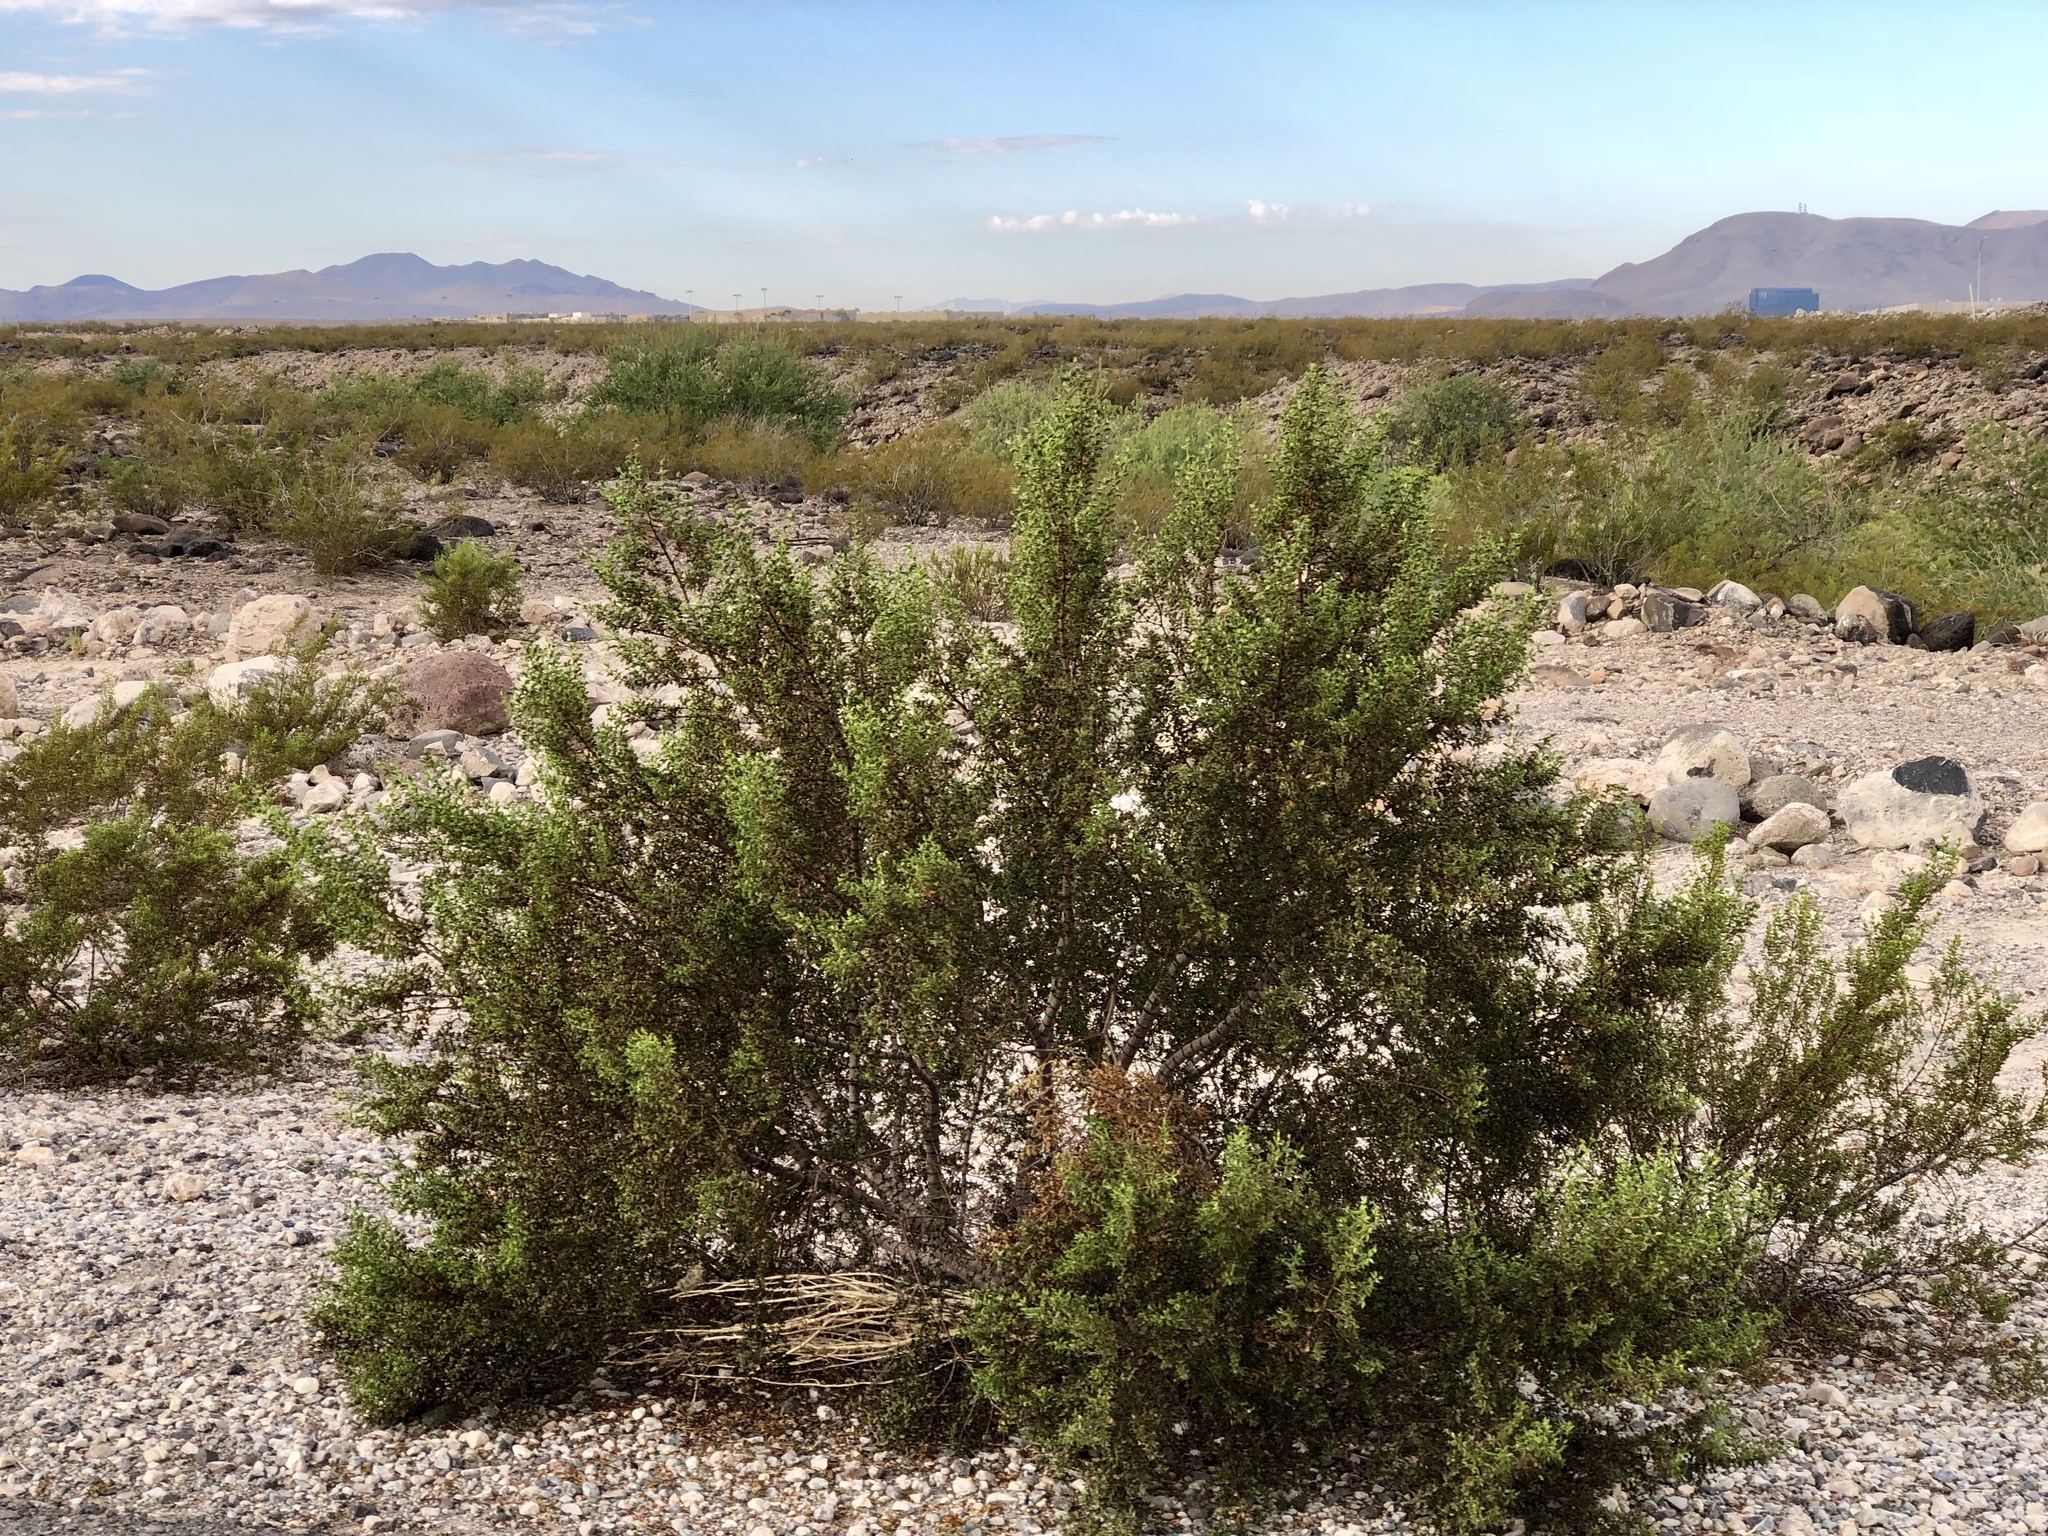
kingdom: Plantae
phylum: Tracheophyta
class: Magnoliopsida
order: Zygophyllales
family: Zygophyllaceae
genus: Larrea
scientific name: Larrea tridentata
